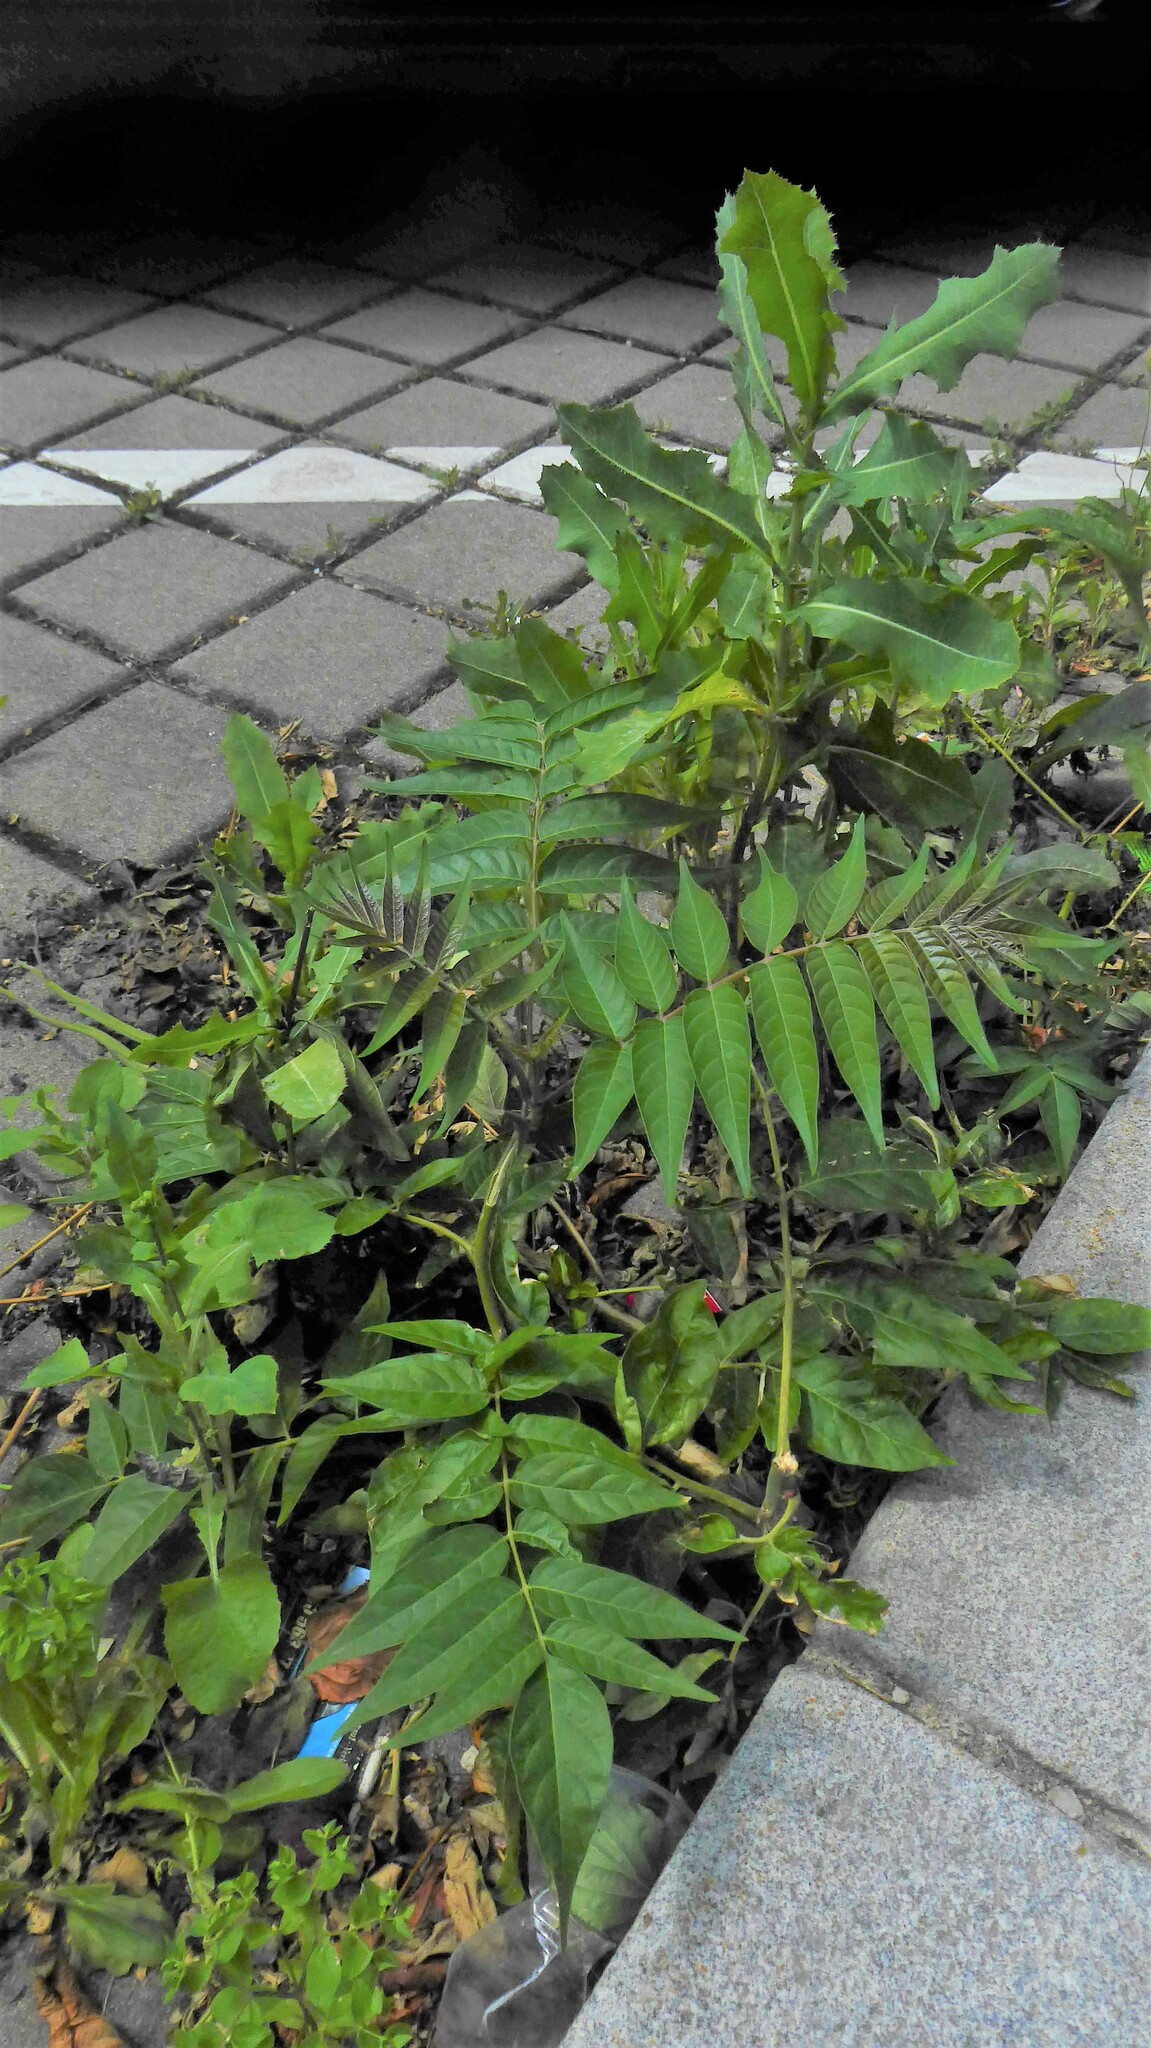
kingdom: Plantae
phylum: Tracheophyta
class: Magnoliopsida
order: Sapindales
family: Simaroubaceae
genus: Ailanthus
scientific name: Ailanthus altissima
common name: Tree-of-heaven
